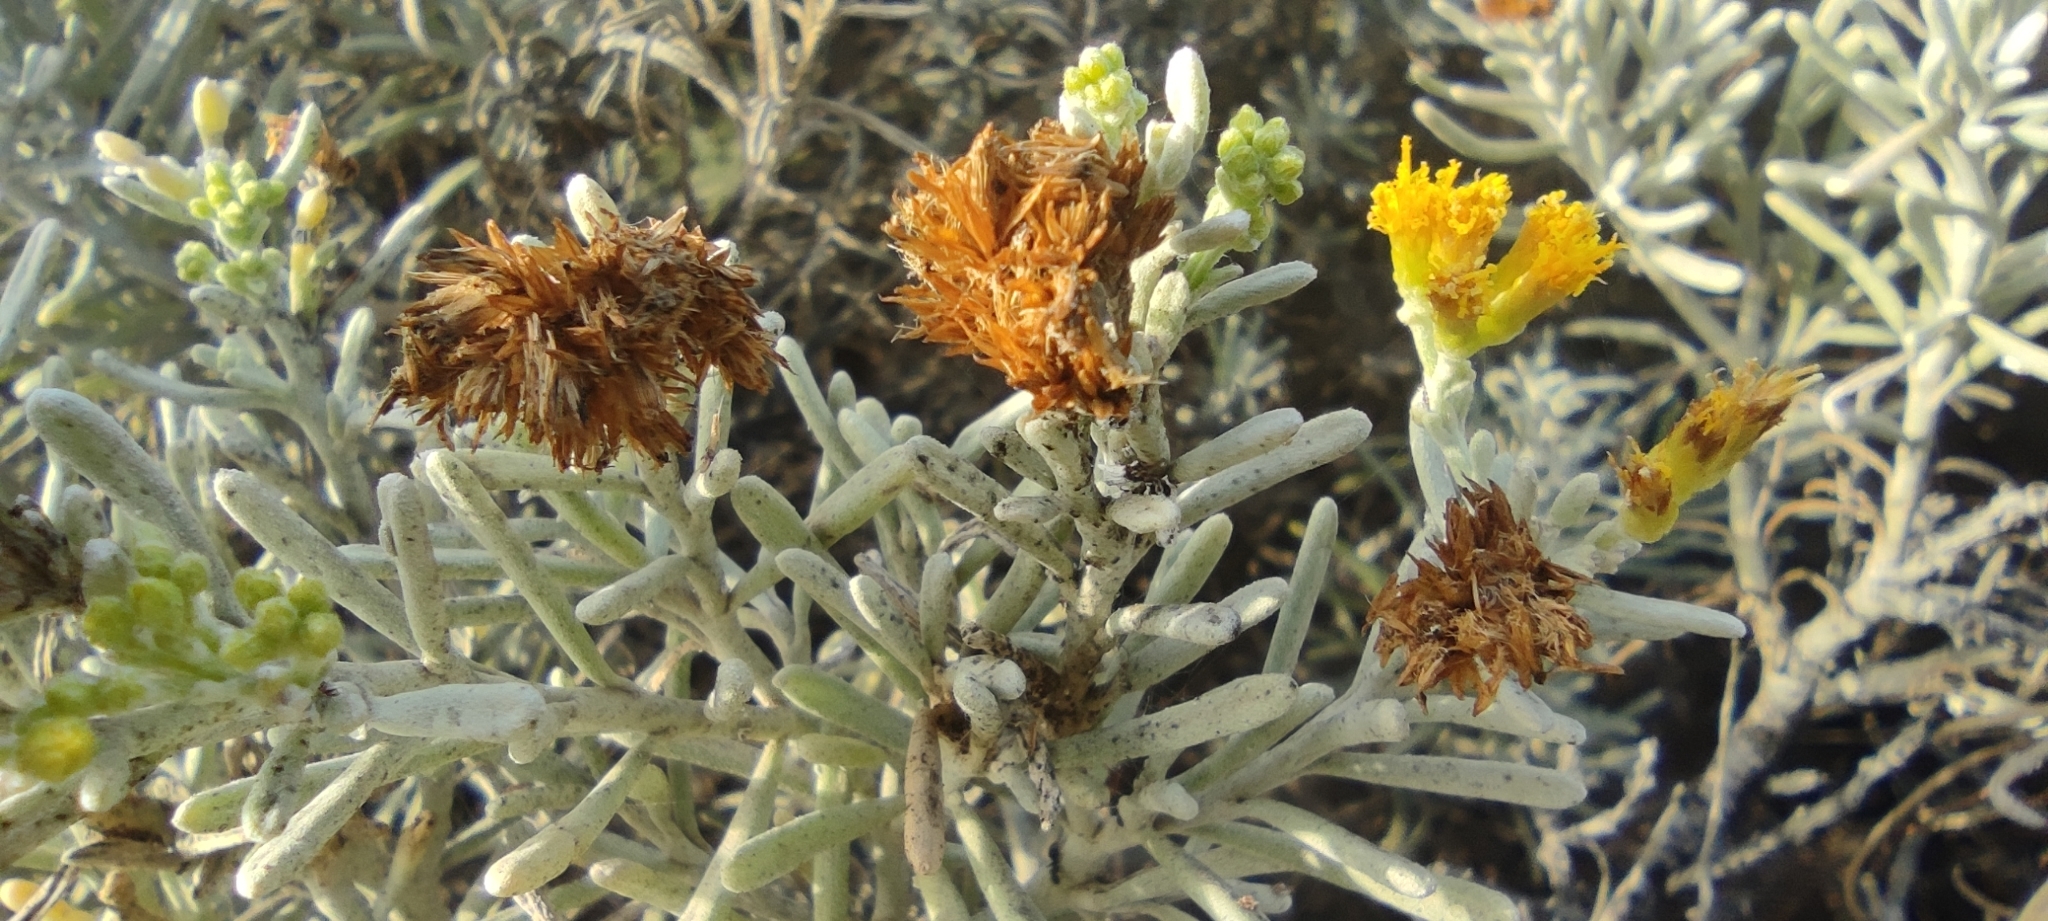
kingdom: Plantae
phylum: Tracheophyta
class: Magnoliopsida
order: Asterales
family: Asteraceae
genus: Schizogyne
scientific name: Schizogyne sericea
